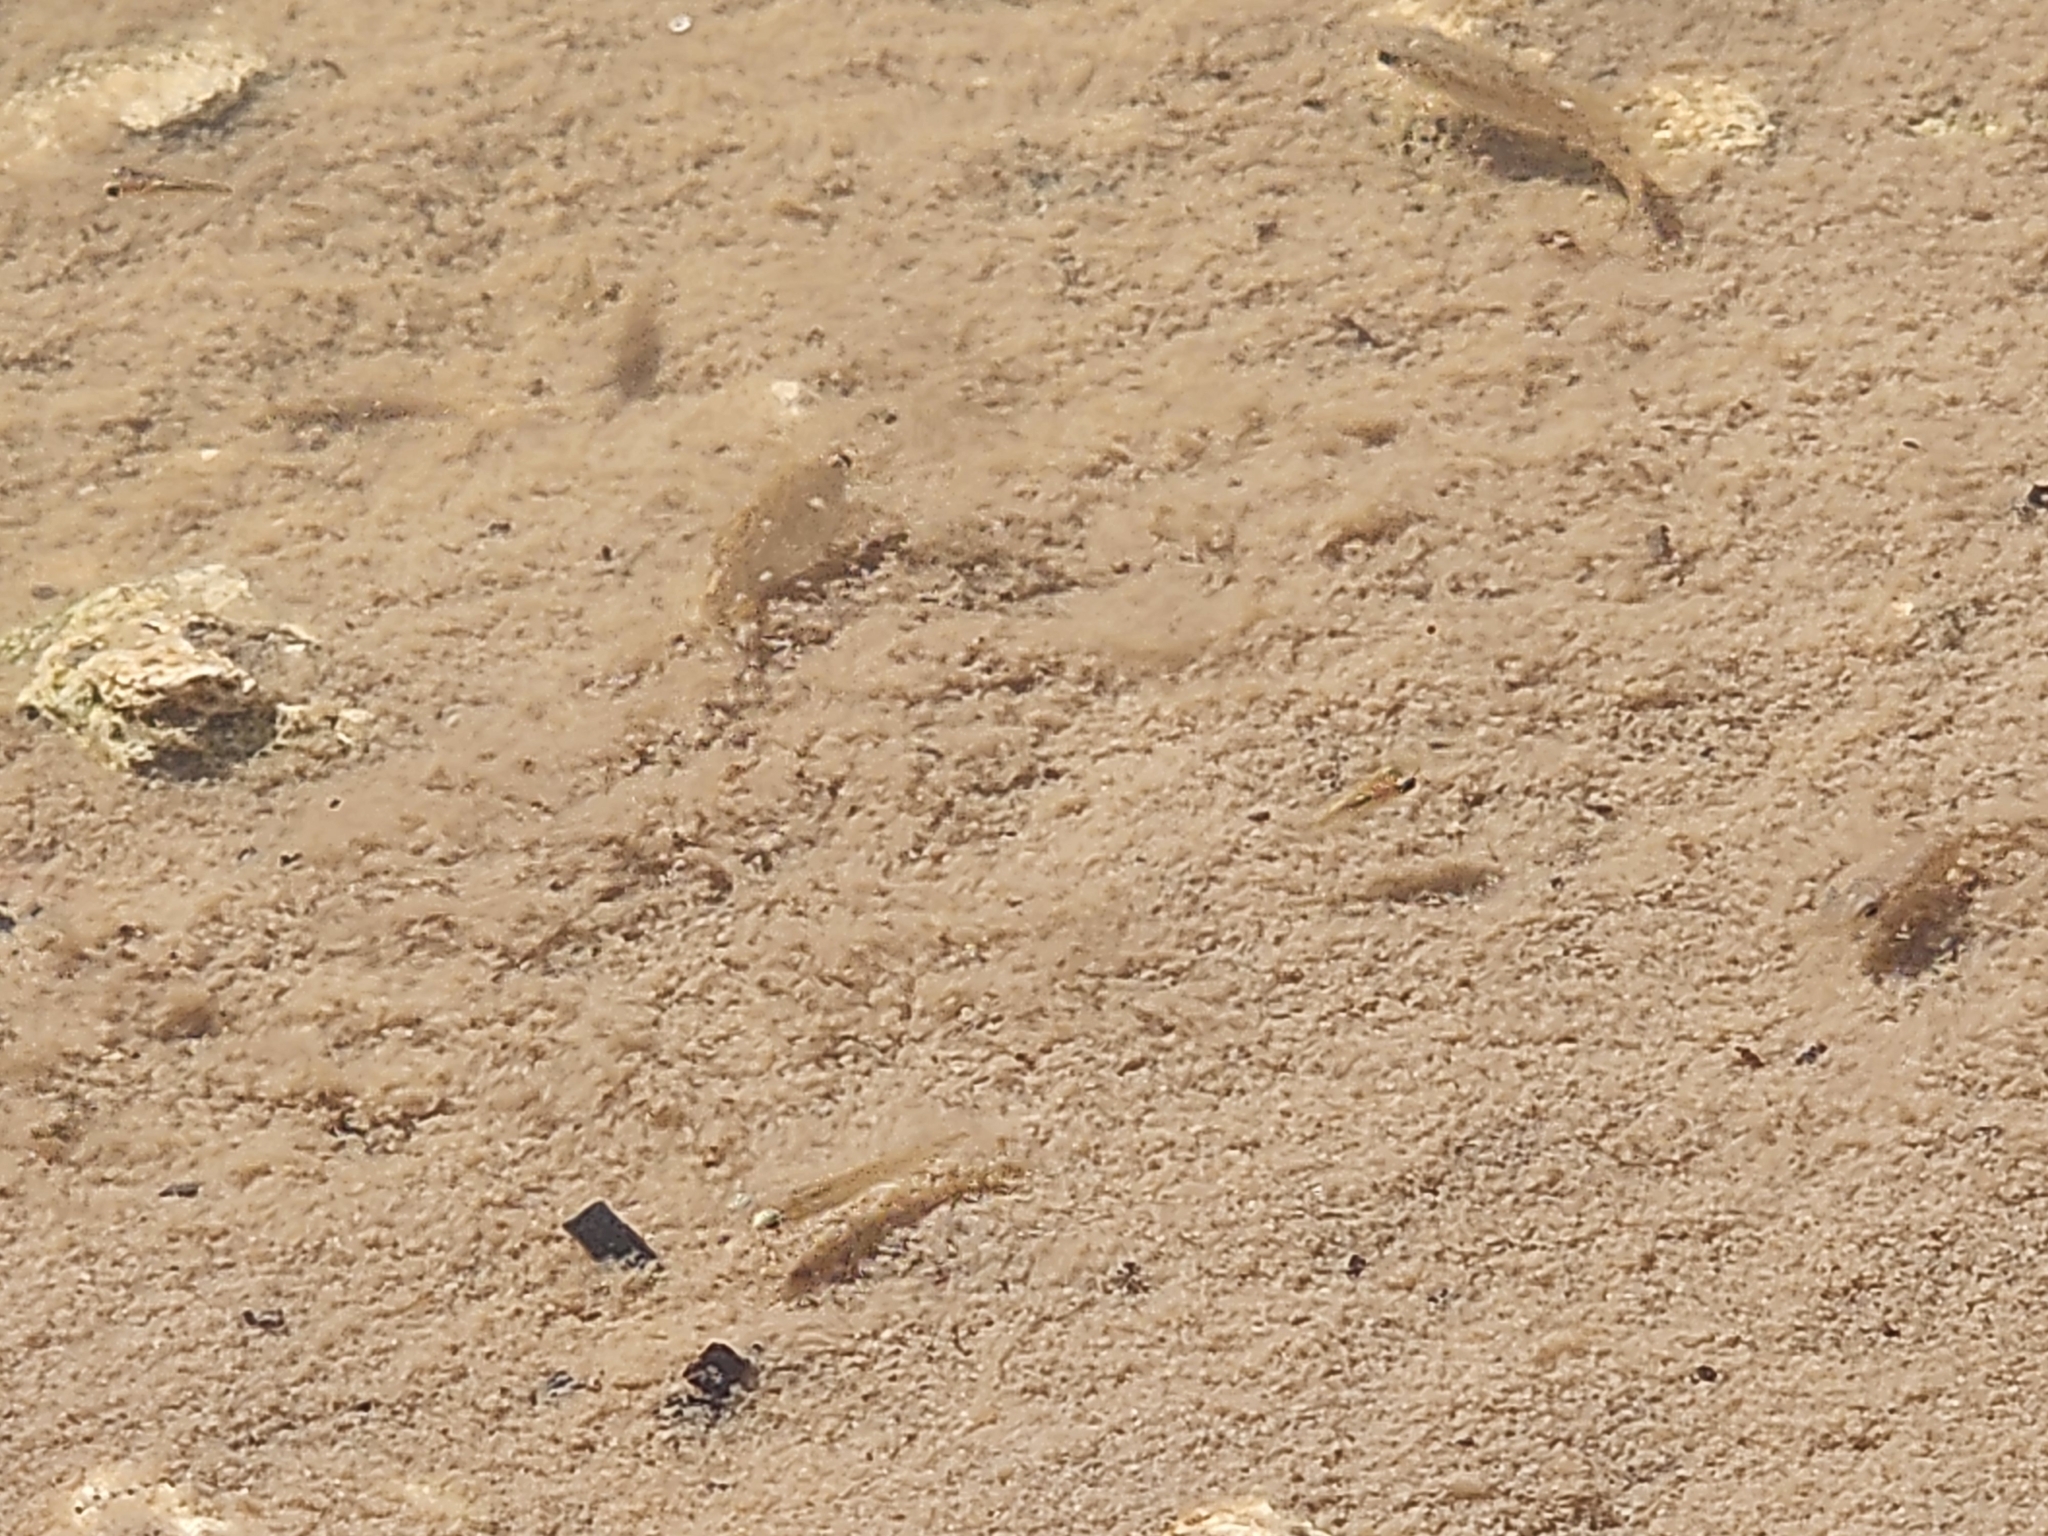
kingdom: Animalia
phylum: Chordata
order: Cyprinodontiformes
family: Poeciliidae
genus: Gambusia
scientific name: Gambusia holbrooki
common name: Eastern mosquitofish
